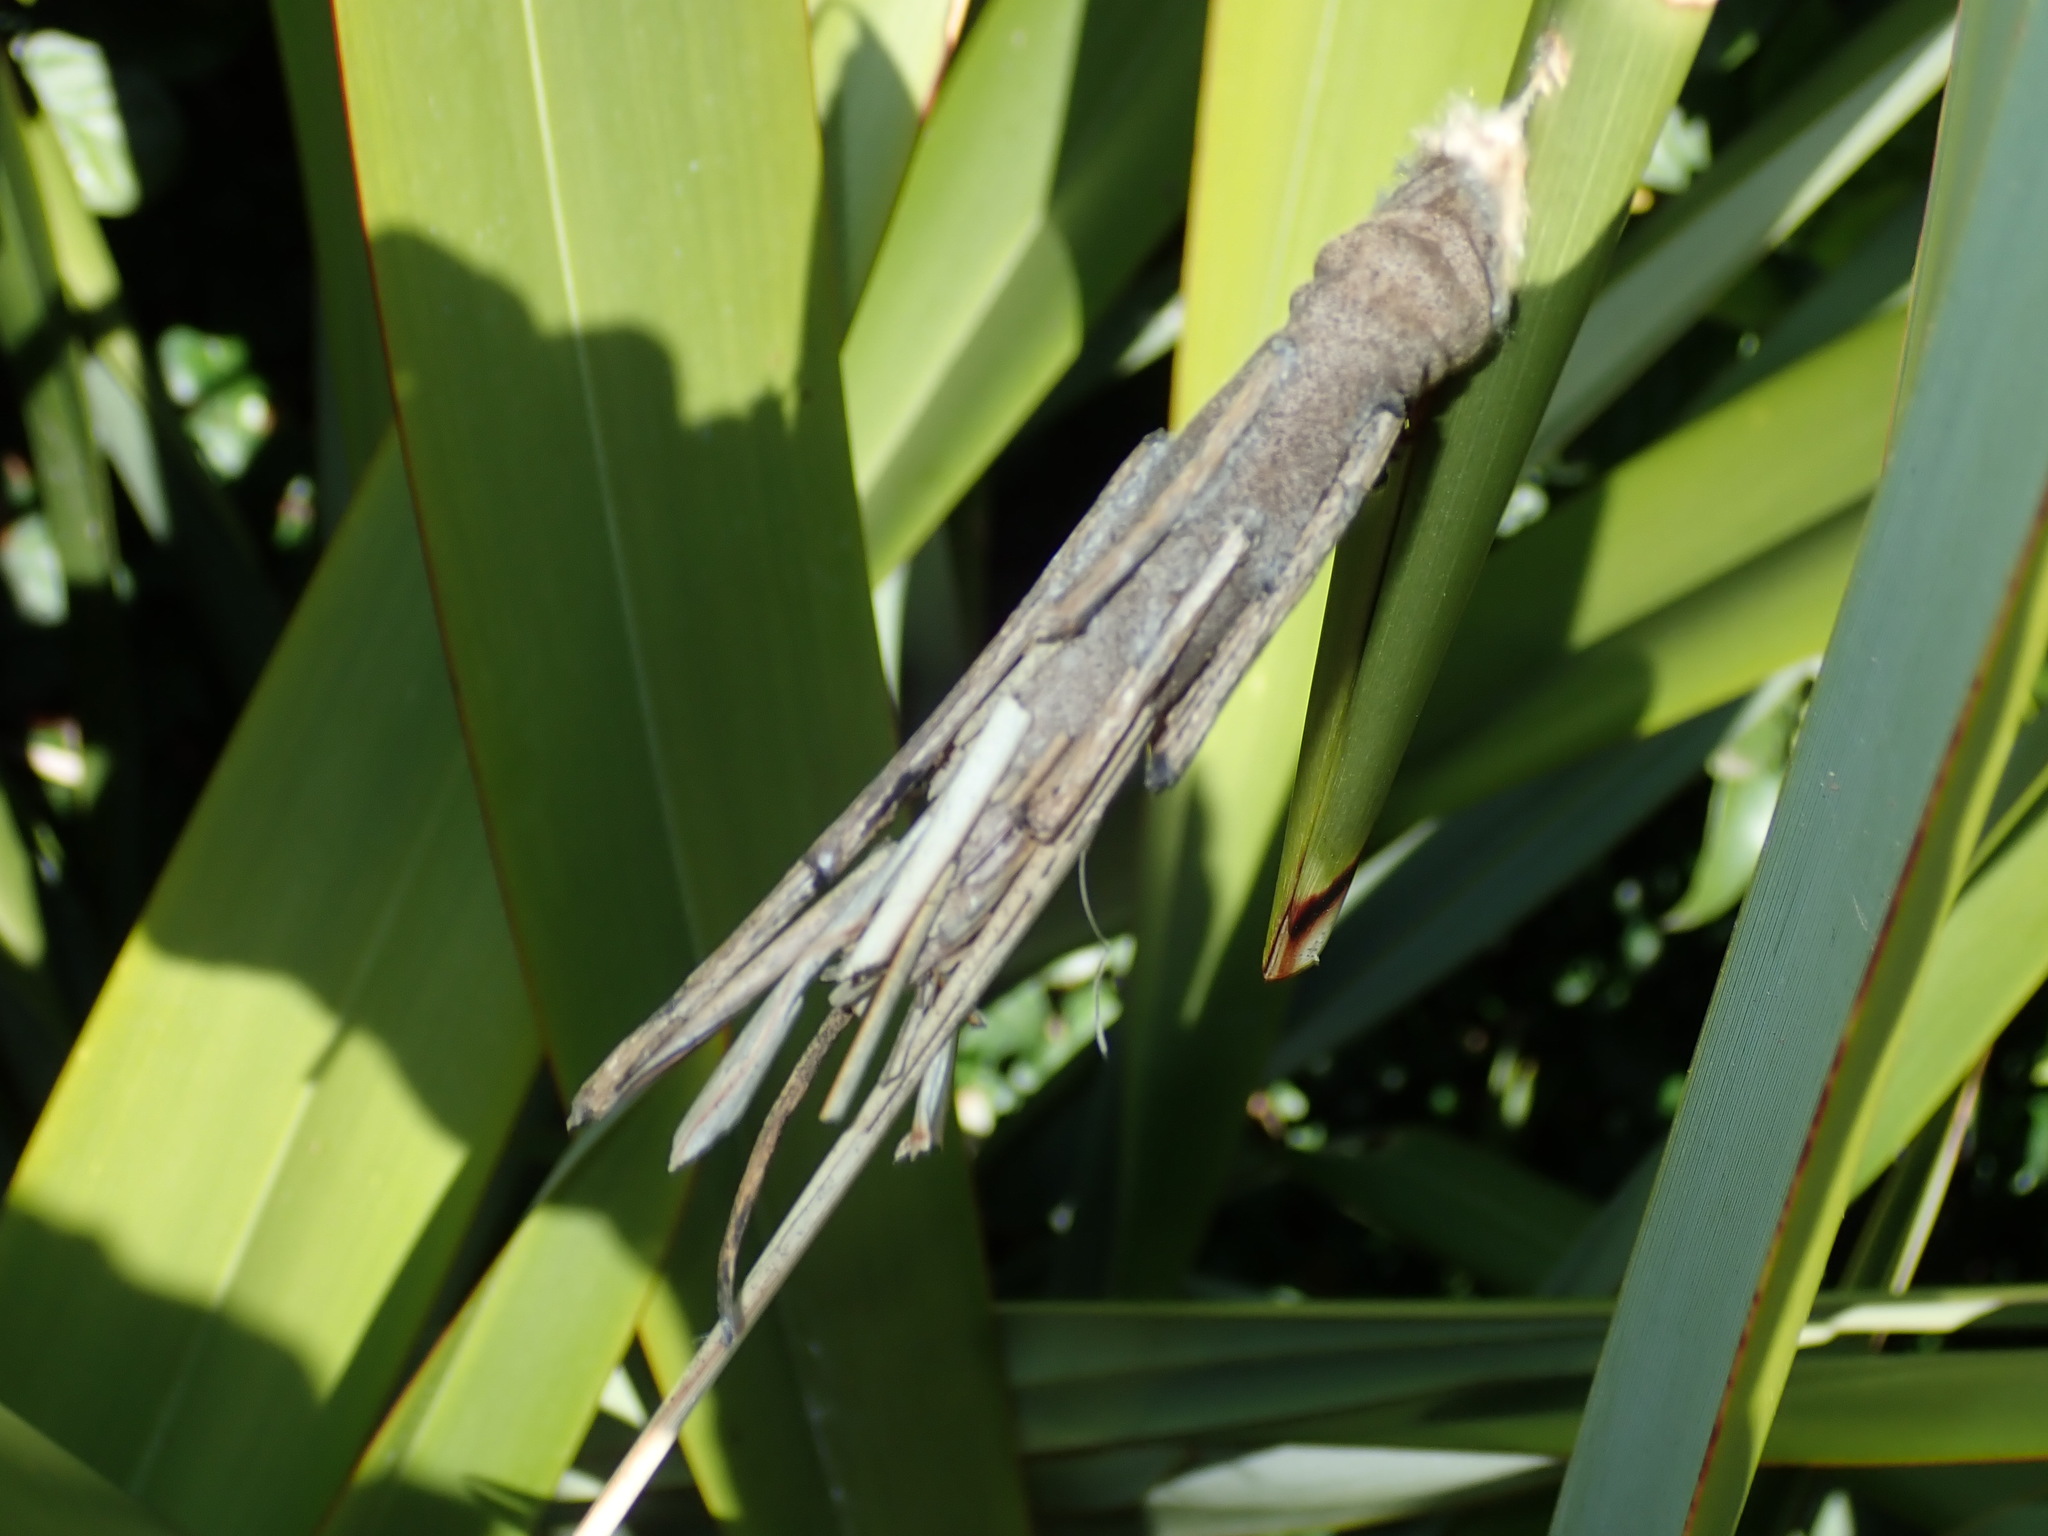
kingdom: Animalia
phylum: Arthropoda
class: Insecta
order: Lepidoptera
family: Psychidae
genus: Metura
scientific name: Metura elongatus
